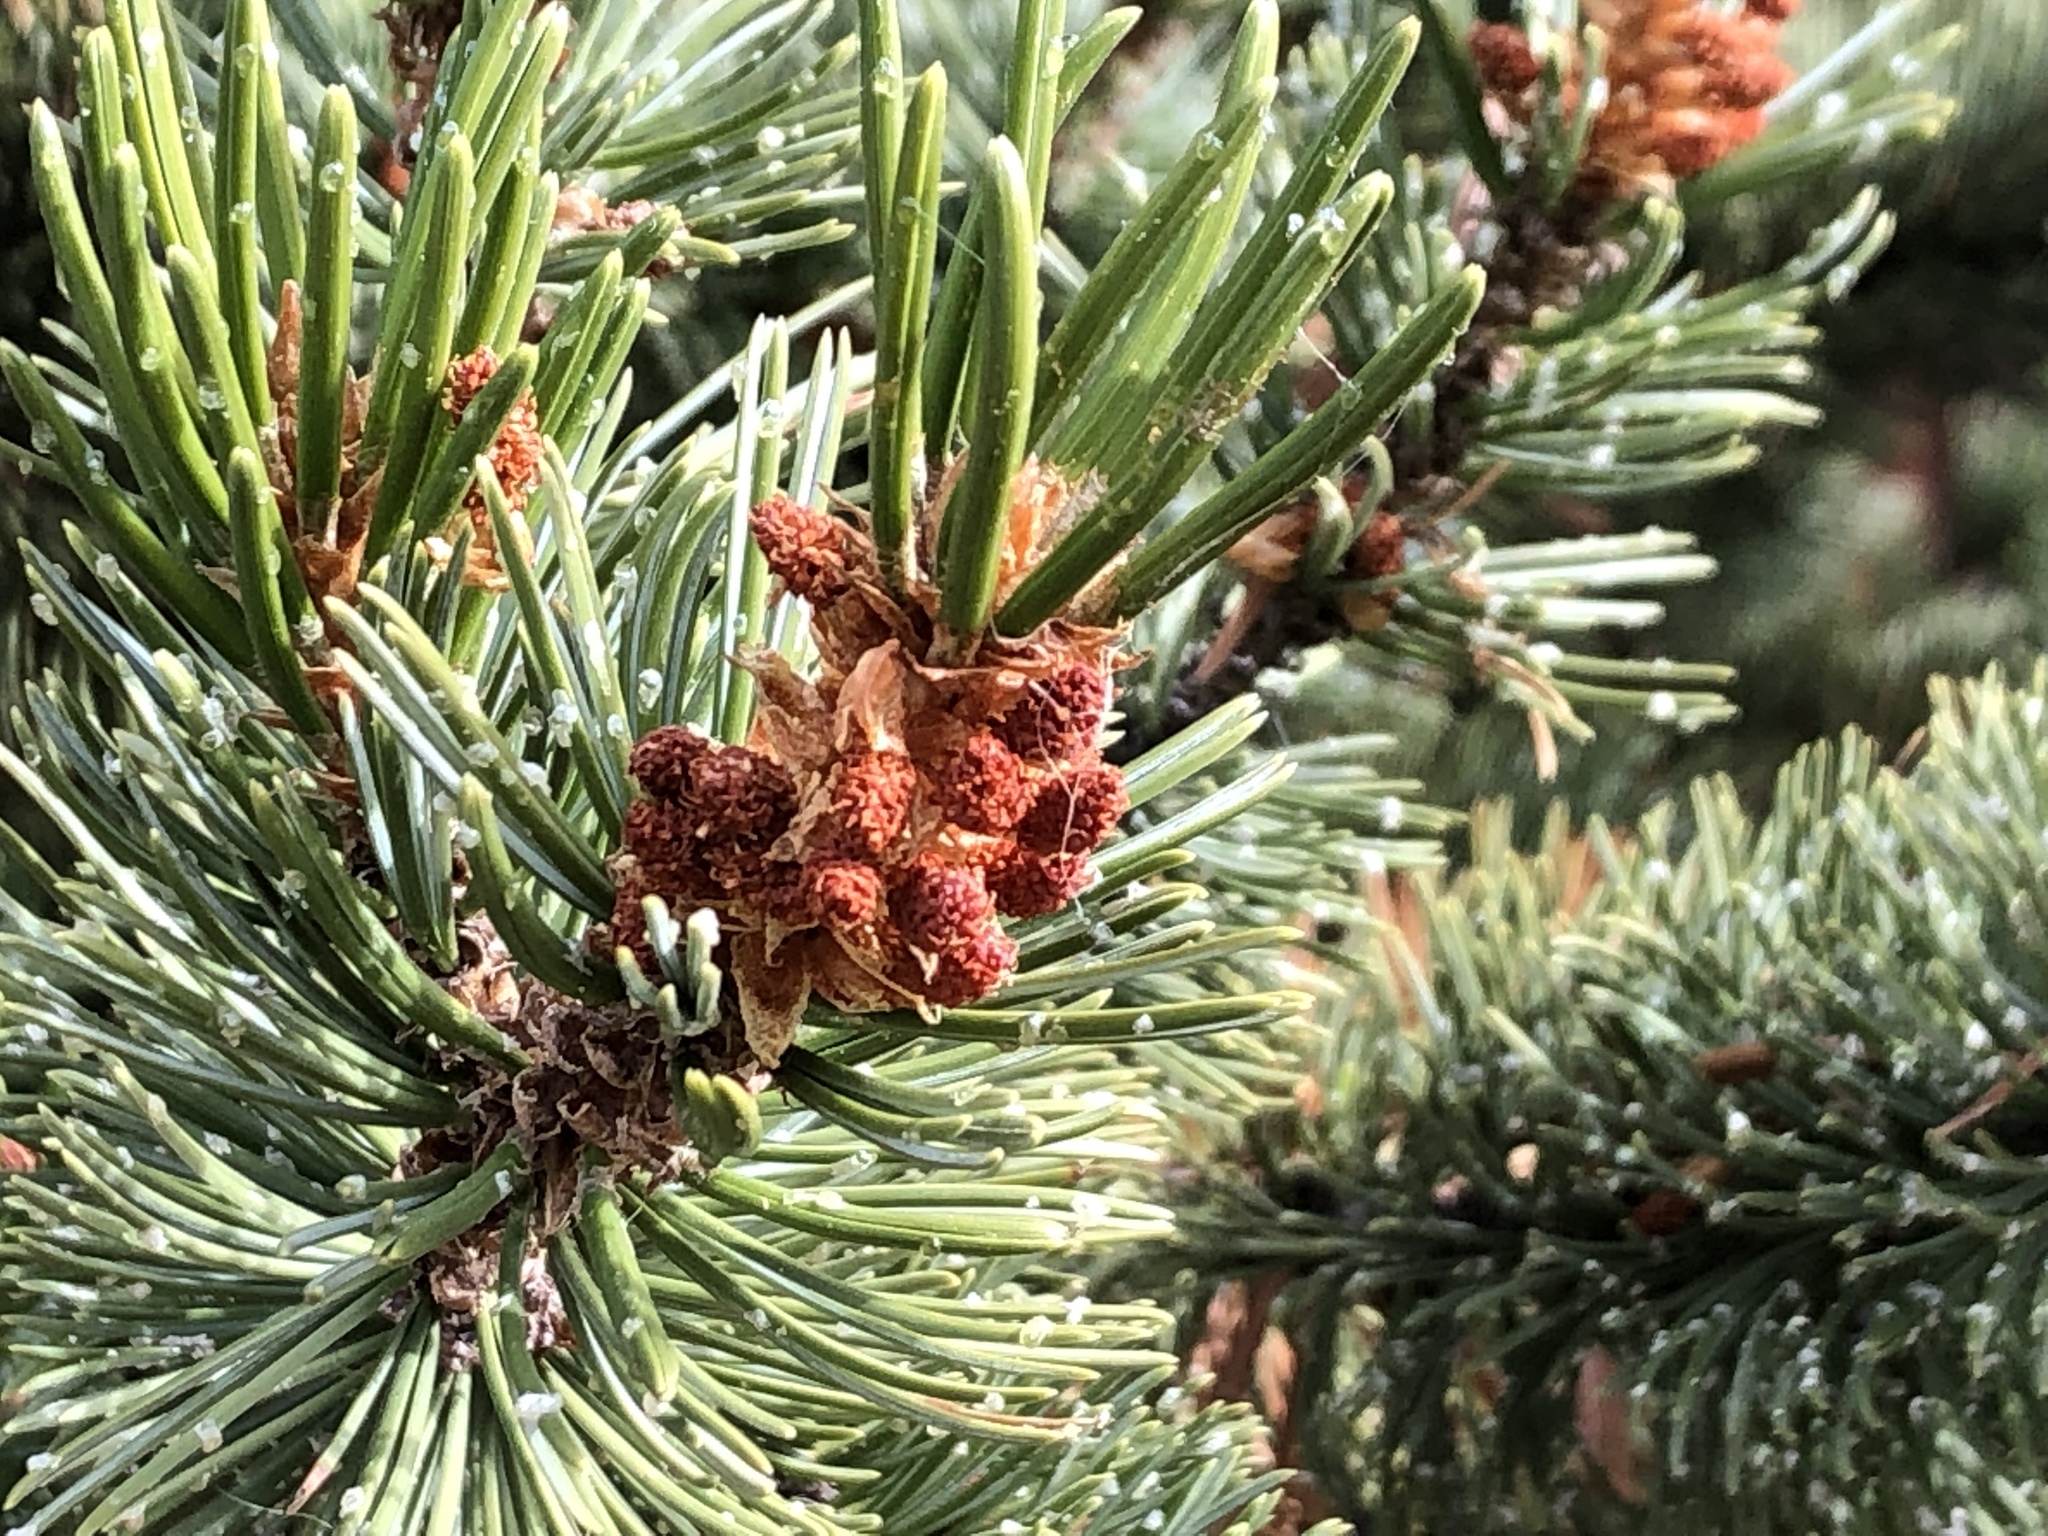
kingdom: Plantae
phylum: Tracheophyta
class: Pinopsida
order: Pinales
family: Pinaceae
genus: Pinus
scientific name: Pinus aristata
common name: Colorado bristlecone pine
